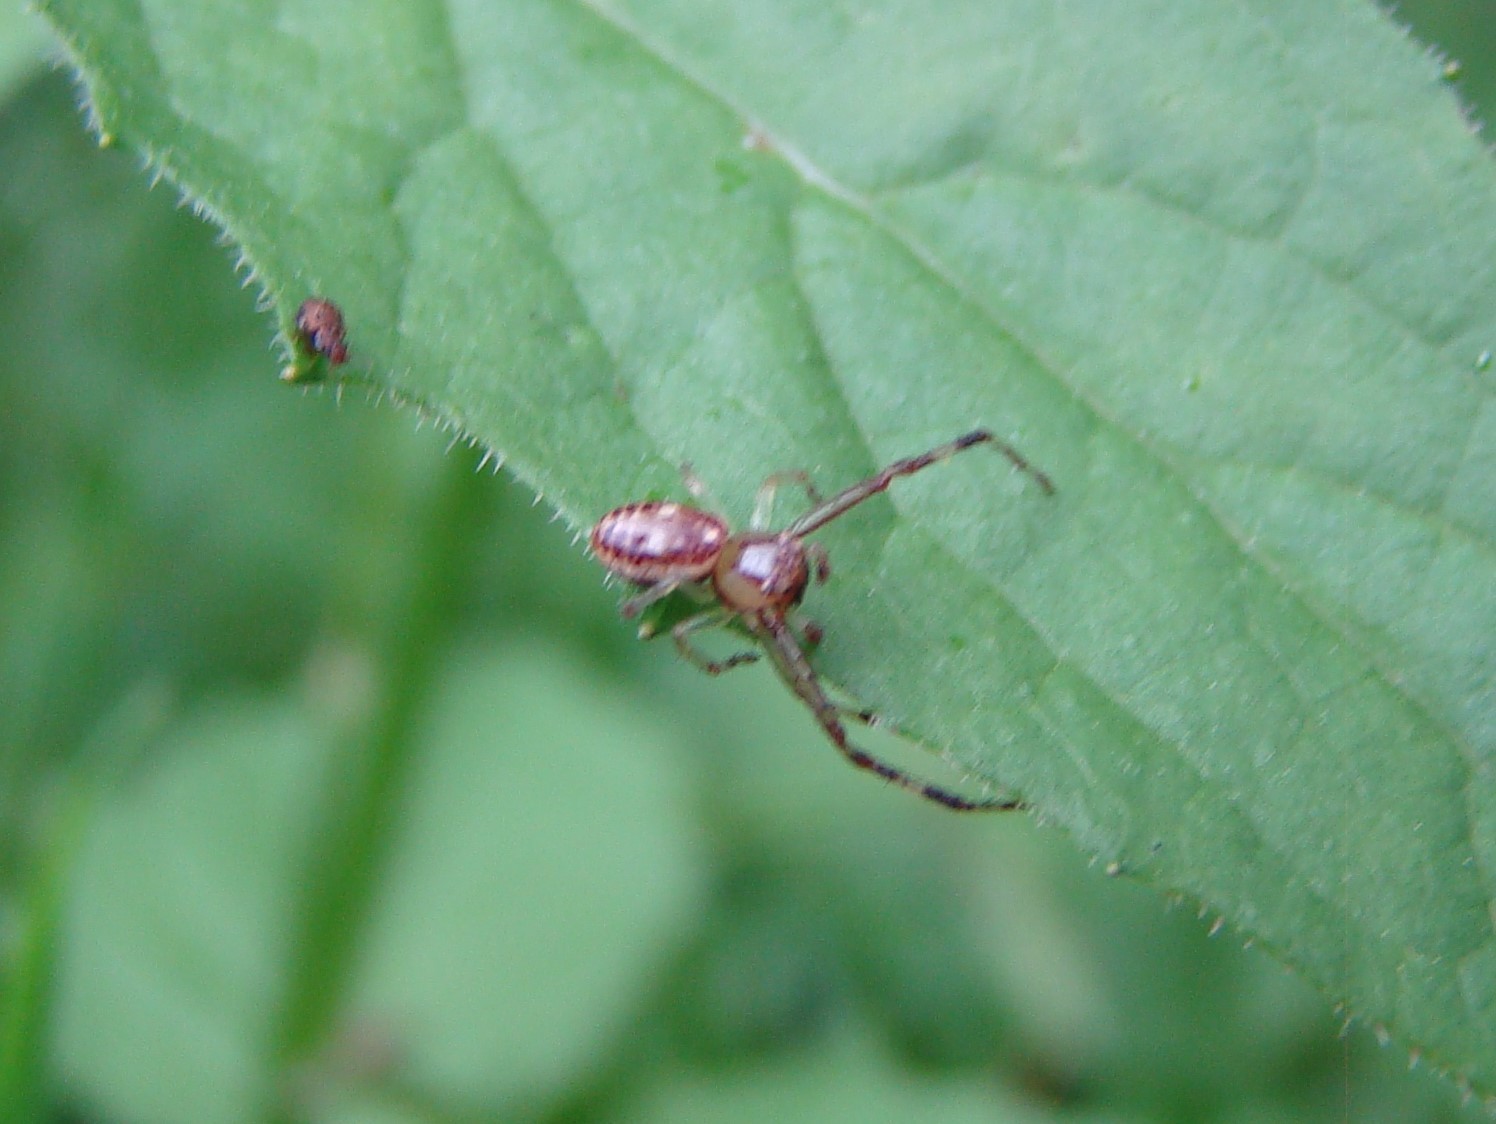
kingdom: Animalia
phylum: Arthropoda
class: Arachnida
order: Araneae
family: Thomisidae
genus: Diaea
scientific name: Diaea ambara
